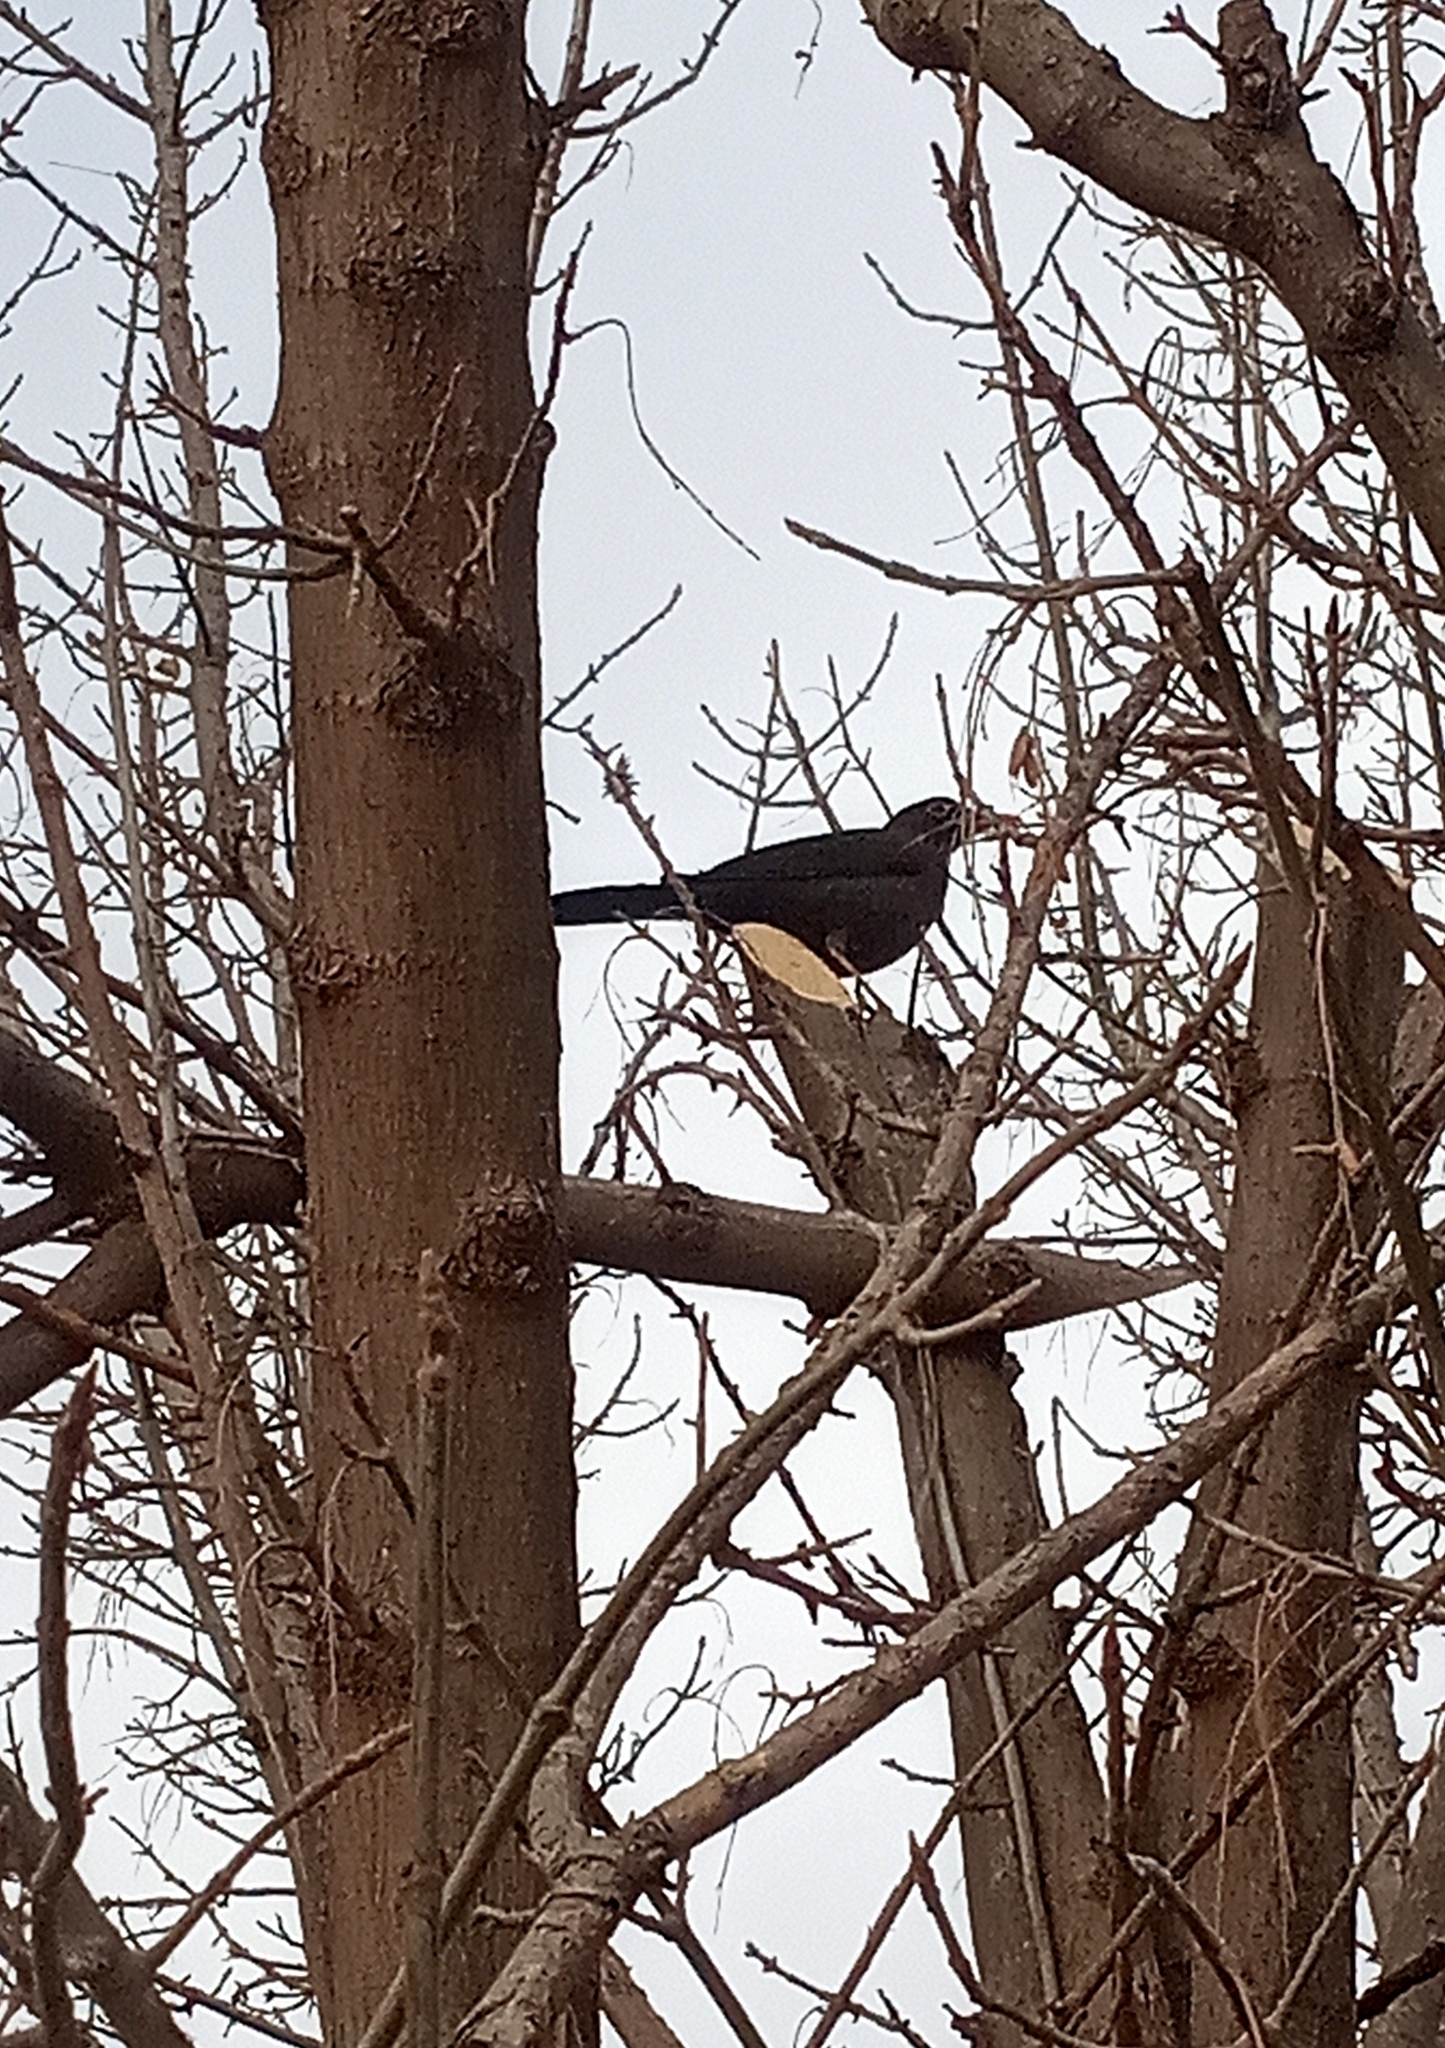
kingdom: Animalia
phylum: Chordata
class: Aves
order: Passeriformes
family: Turdidae
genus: Turdus
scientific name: Turdus chiguanco
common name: Chiguanco thrush
